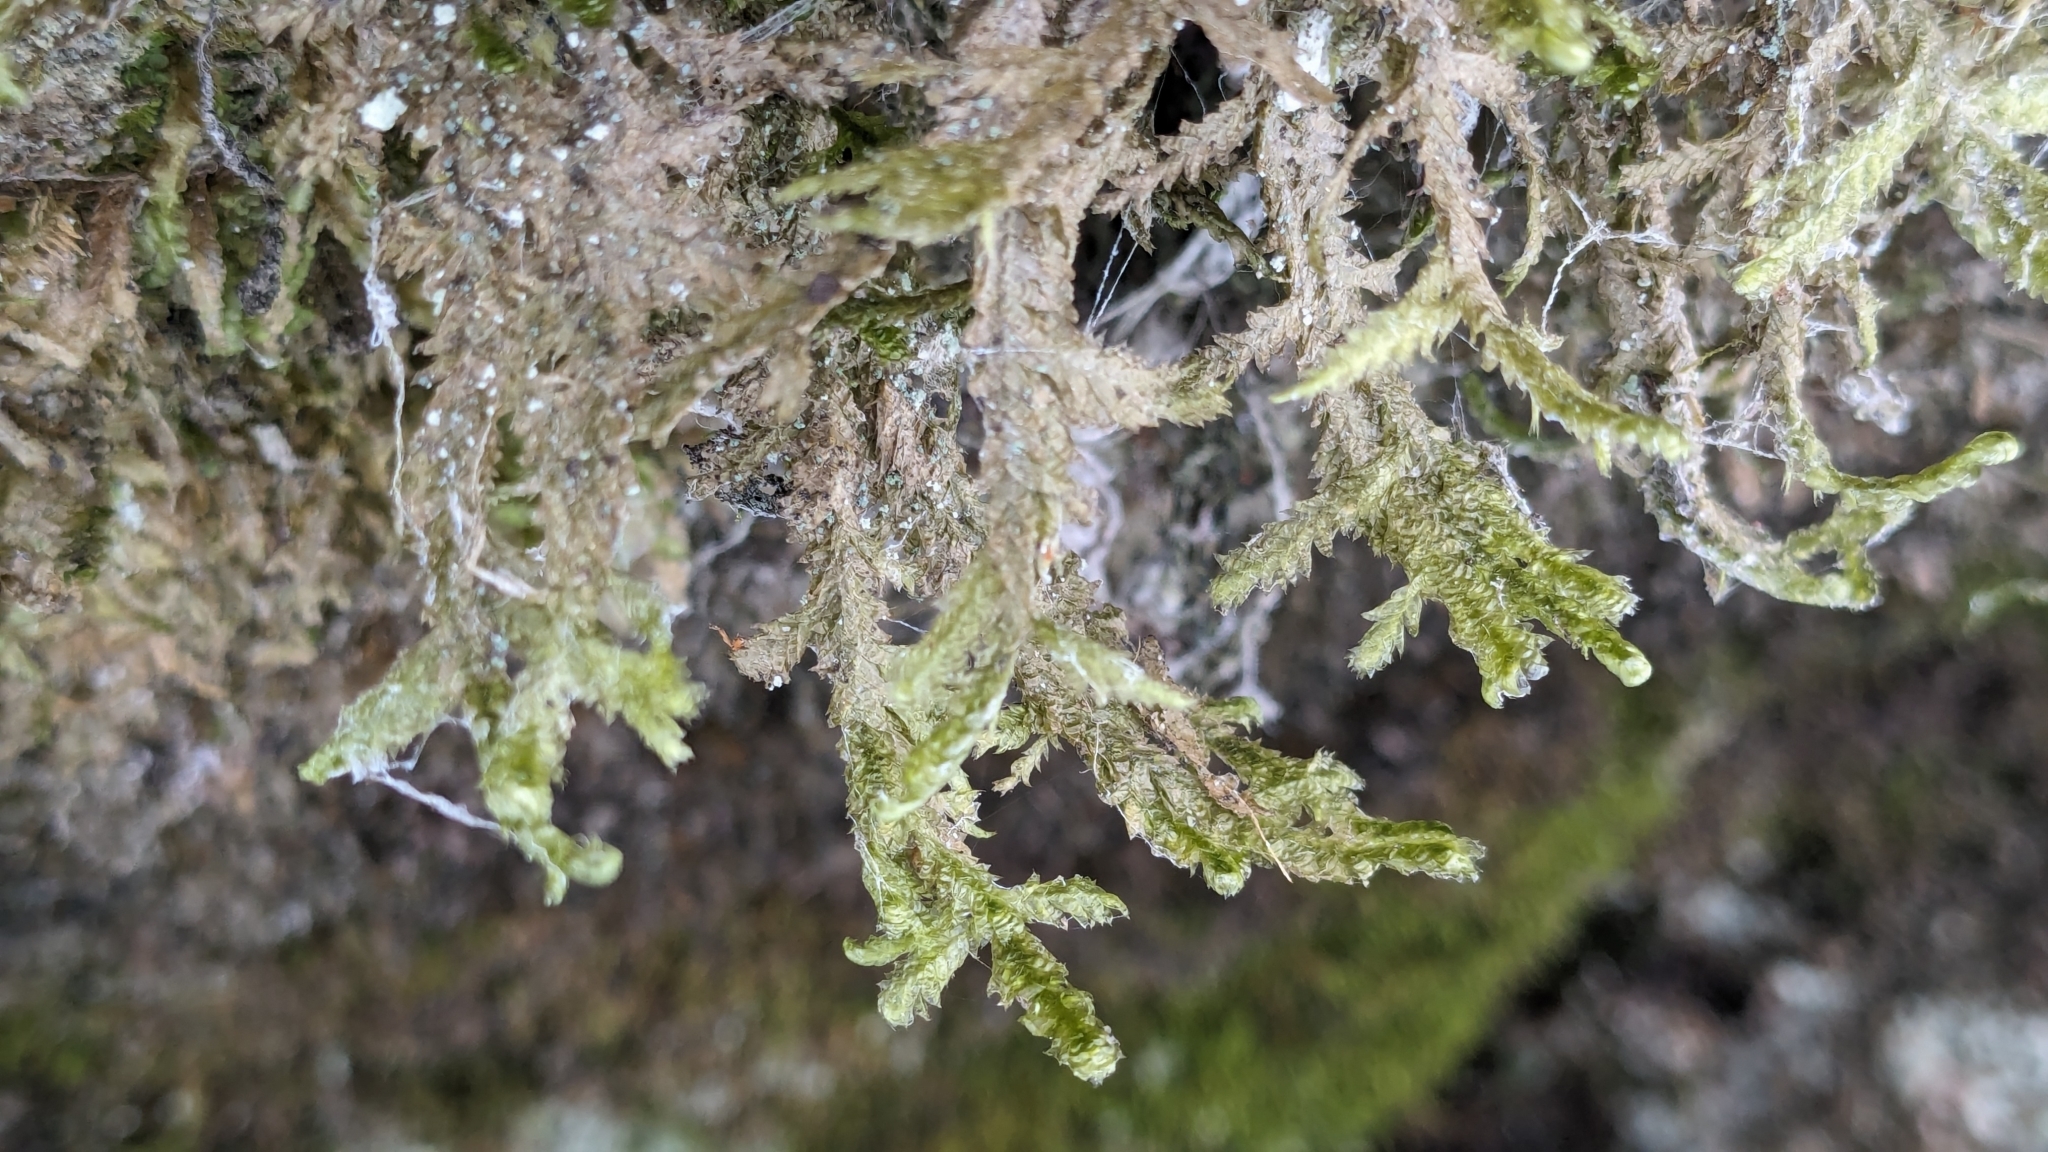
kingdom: Plantae
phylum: Bryophyta
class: Bryopsida
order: Hypnales
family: Neckeraceae
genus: Neckera
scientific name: Neckera pennata
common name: Feathery neckera
